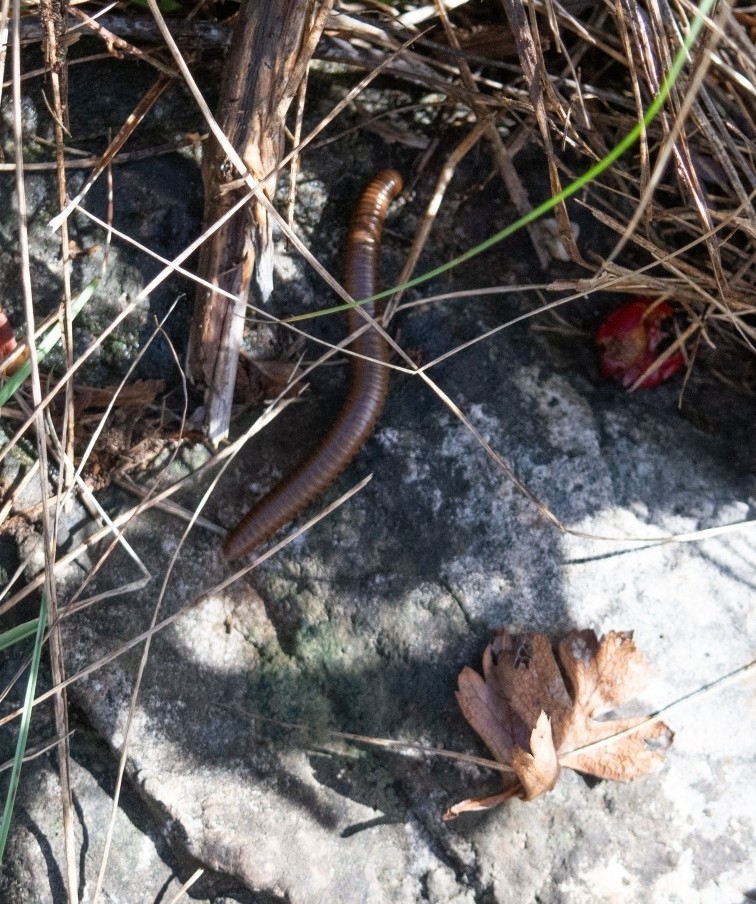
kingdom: Animalia
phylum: Arthropoda
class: Diplopoda
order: Julida
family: Julidae
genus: Pachyiulus
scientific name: Pachyiulus cattarensis
